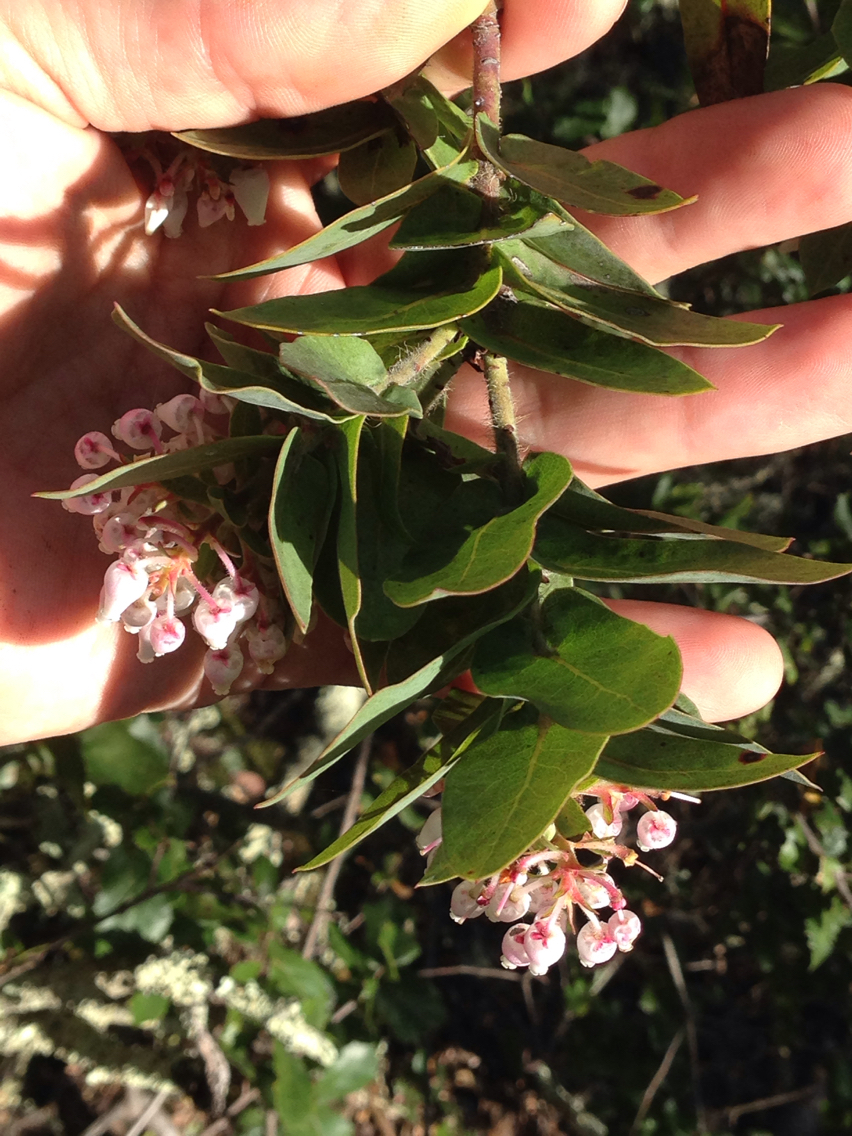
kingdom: Plantae
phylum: Tracheophyta
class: Magnoliopsida
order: Ericales
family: Ericaceae
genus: Arctostaphylos
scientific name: Arctostaphylos pallida
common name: Pallid manzanita
